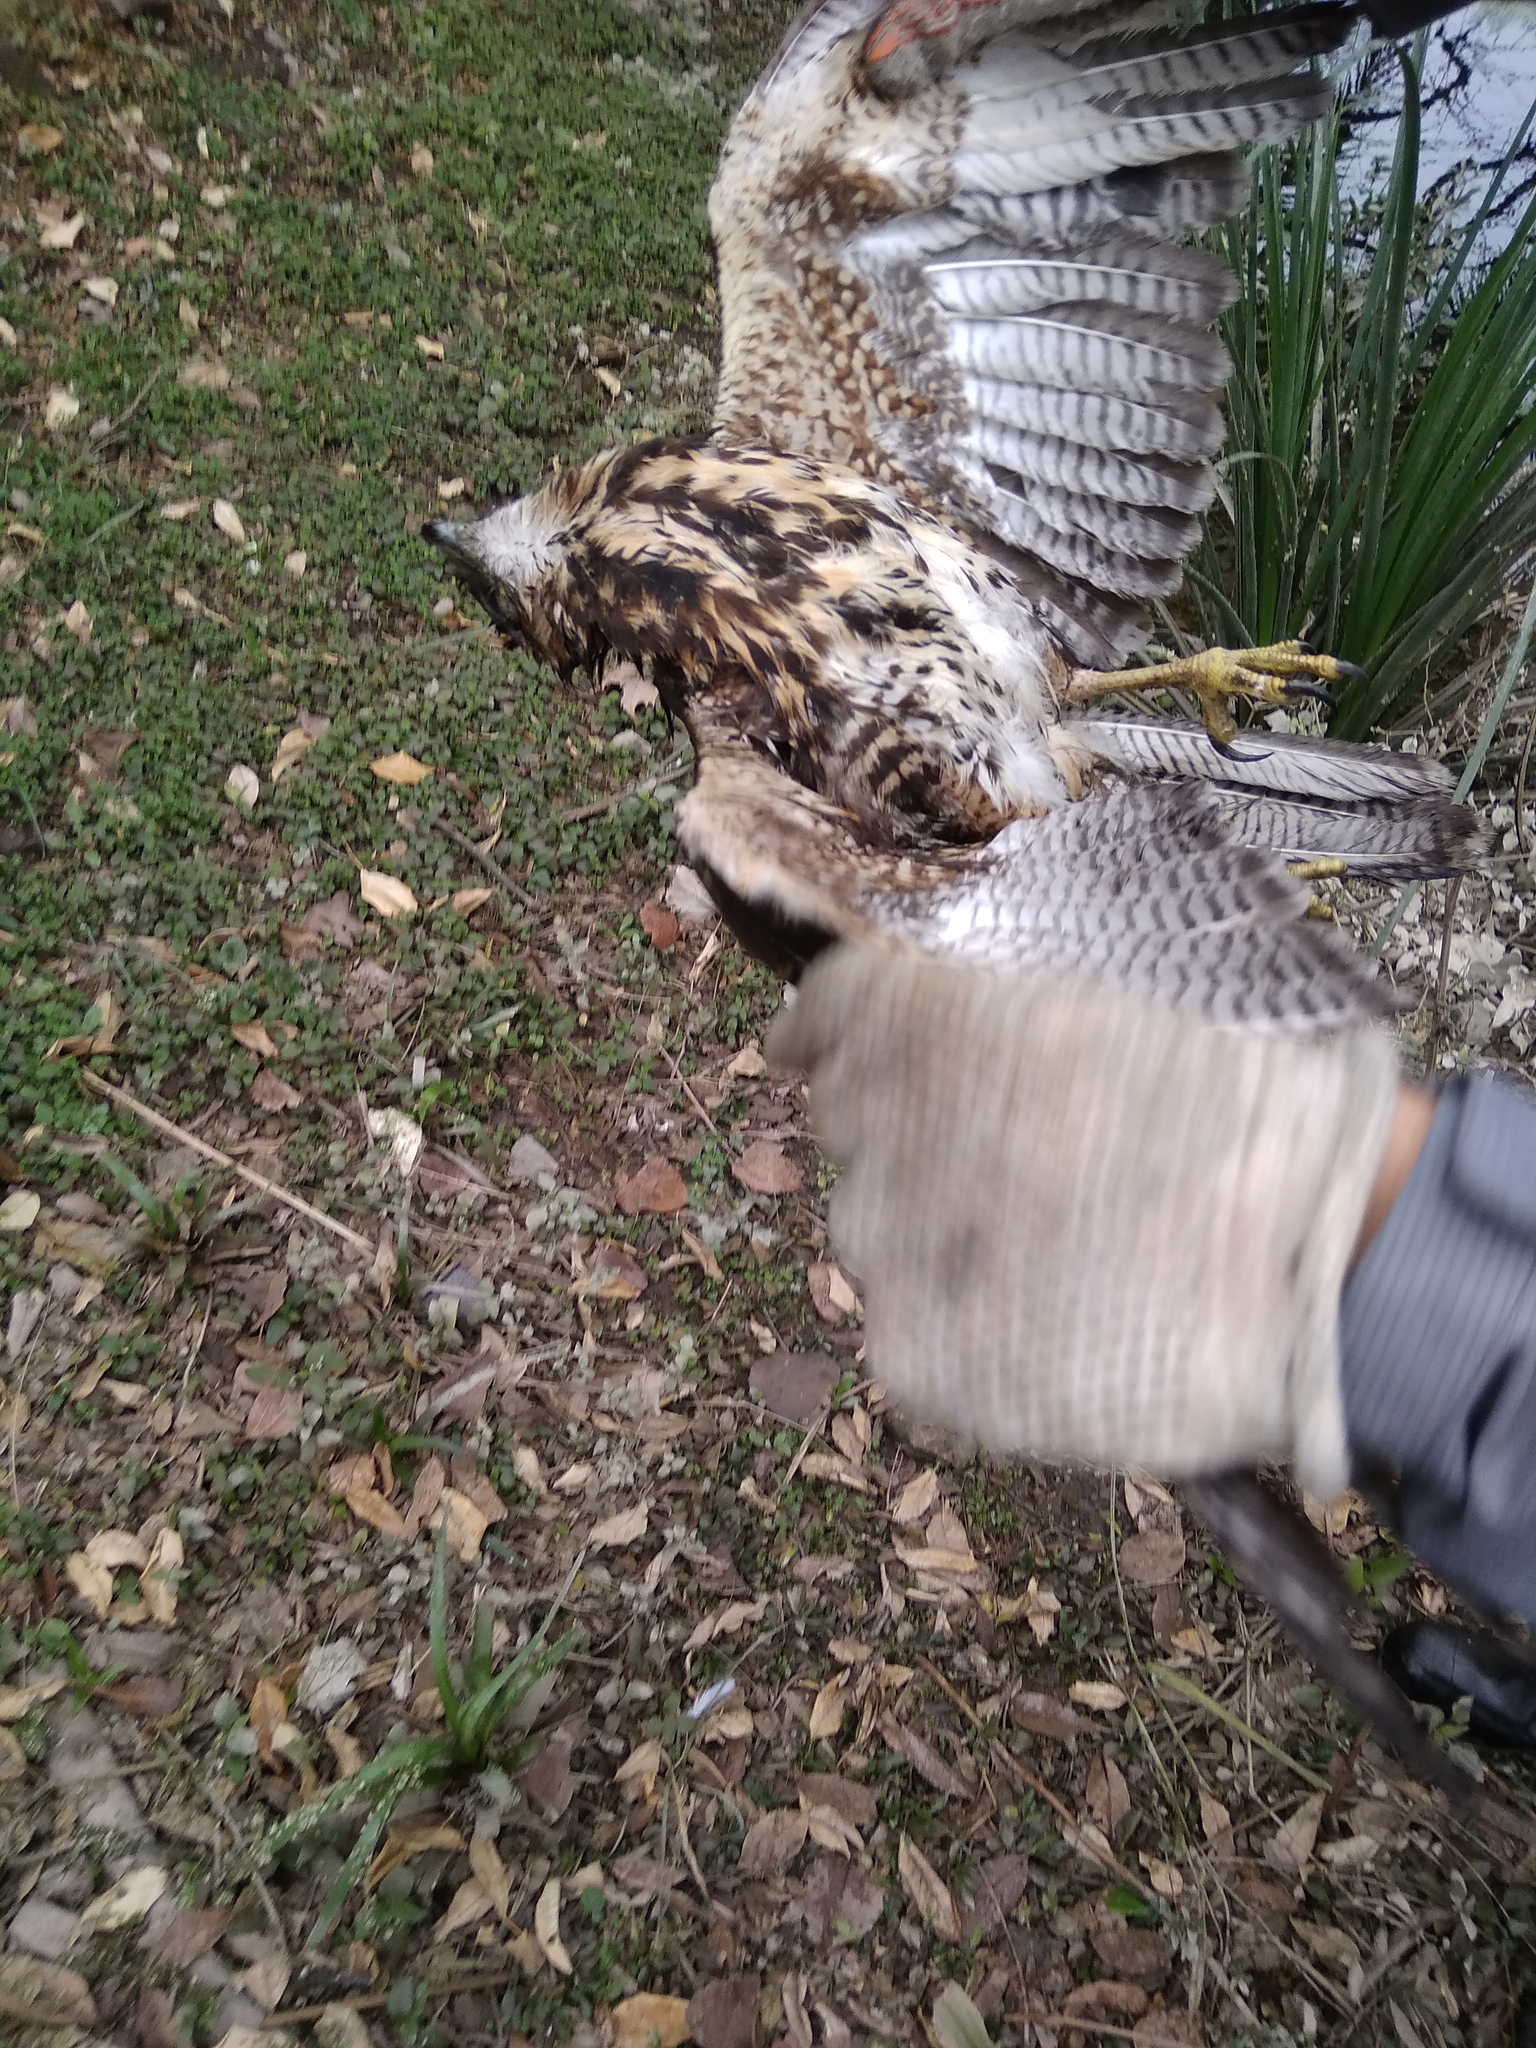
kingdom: Animalia
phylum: Chordata
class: Aves
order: Accipitriformes
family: Accipitridae
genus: Parabuteo
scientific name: Parabuteo unicinctus
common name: Harris's hawk
